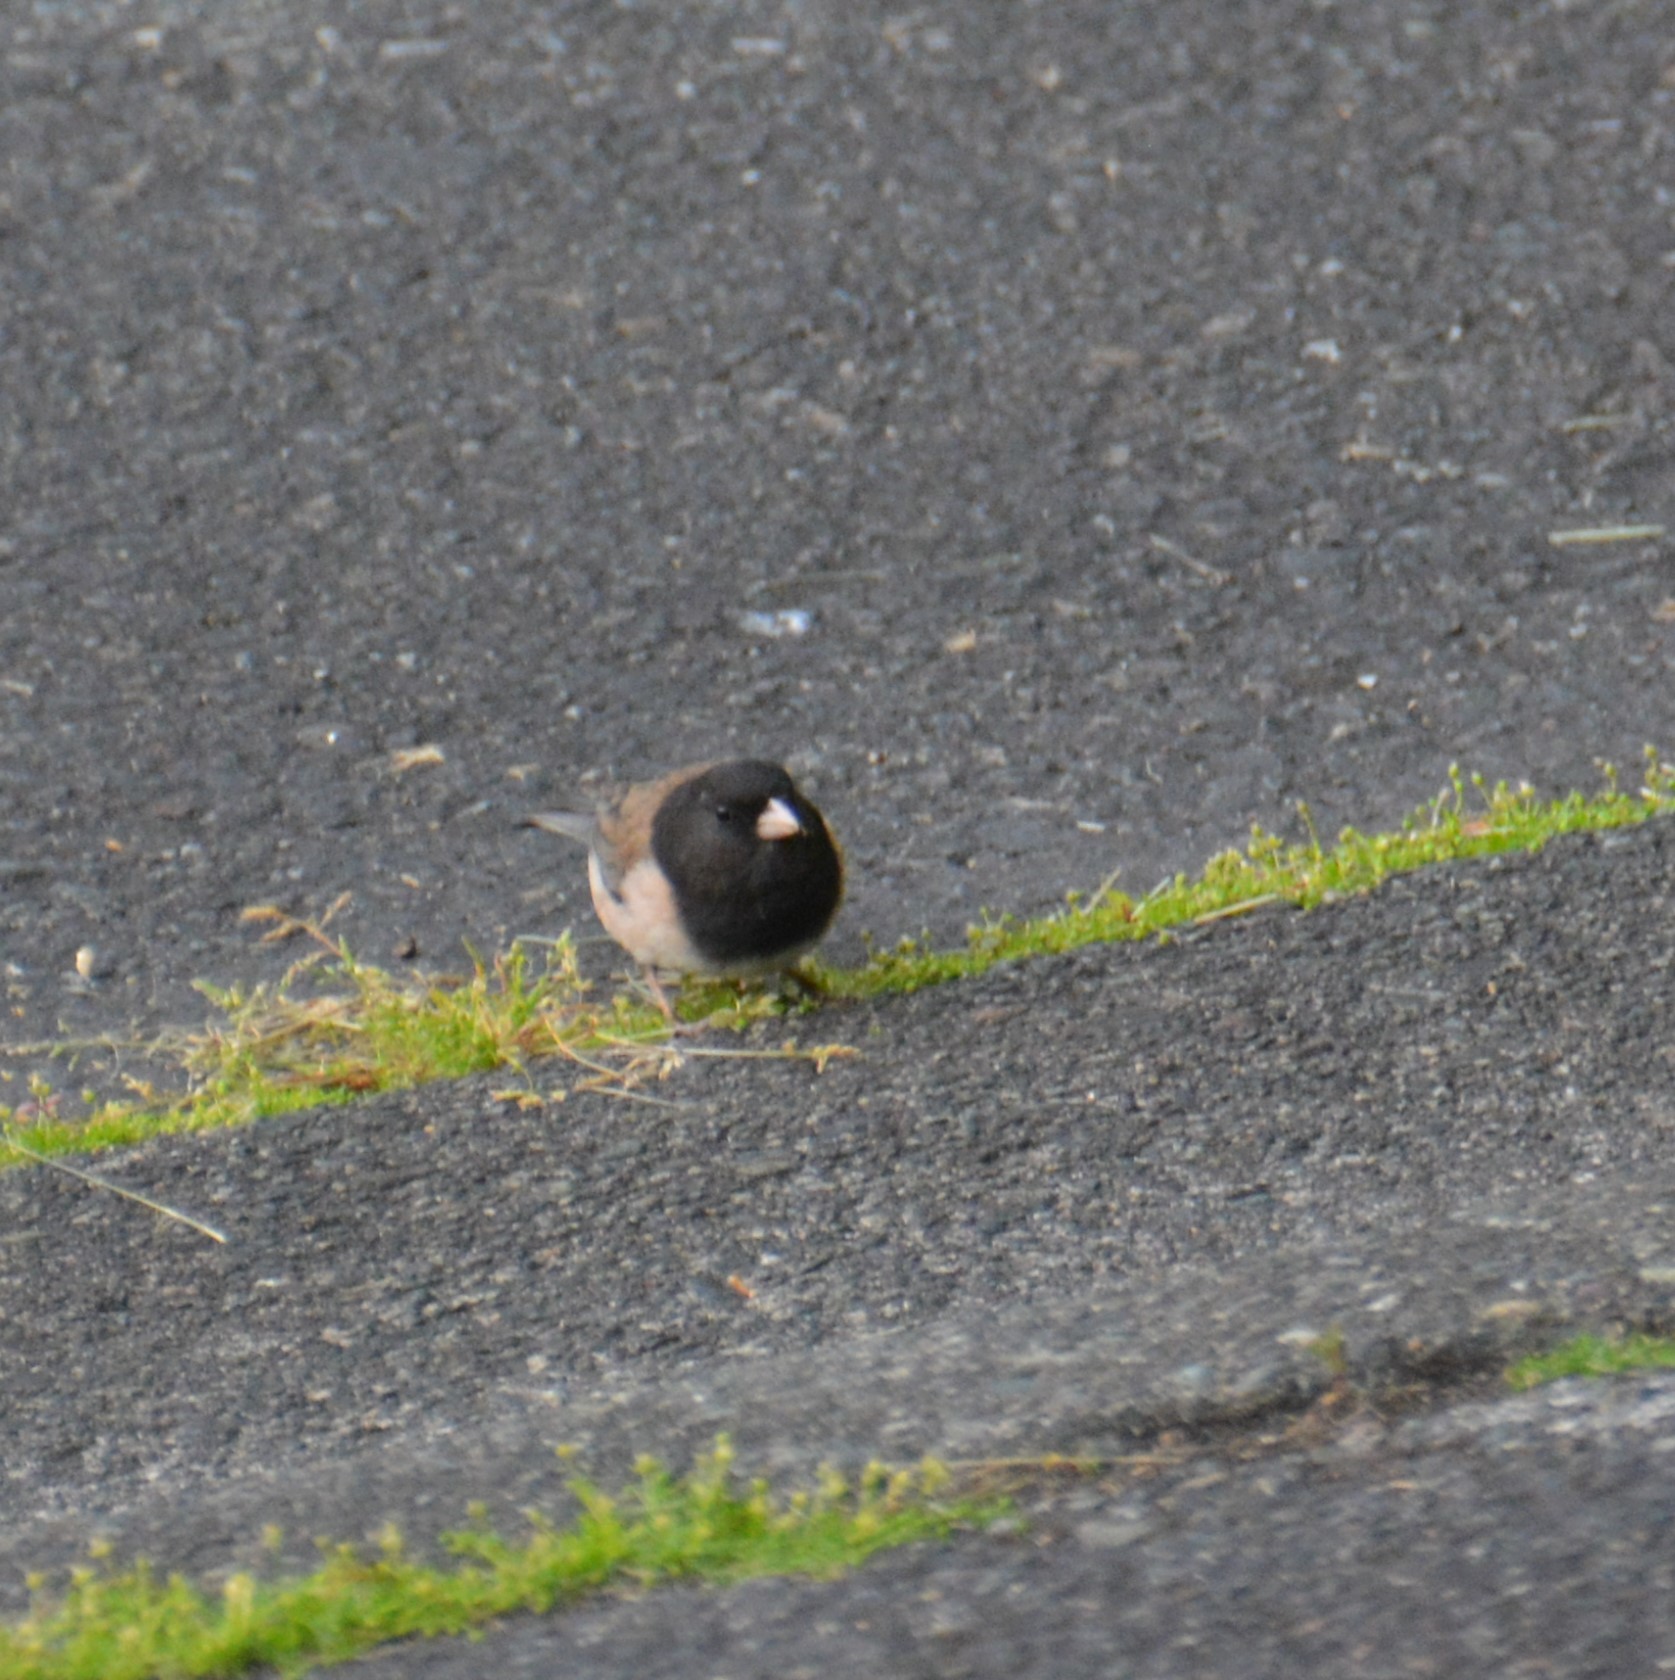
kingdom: Animalia
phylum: Chordata
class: Aves
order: Passeriformes
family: Passerellidae
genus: Junco
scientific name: Junco hyemalis
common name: Dark-eyed junco
